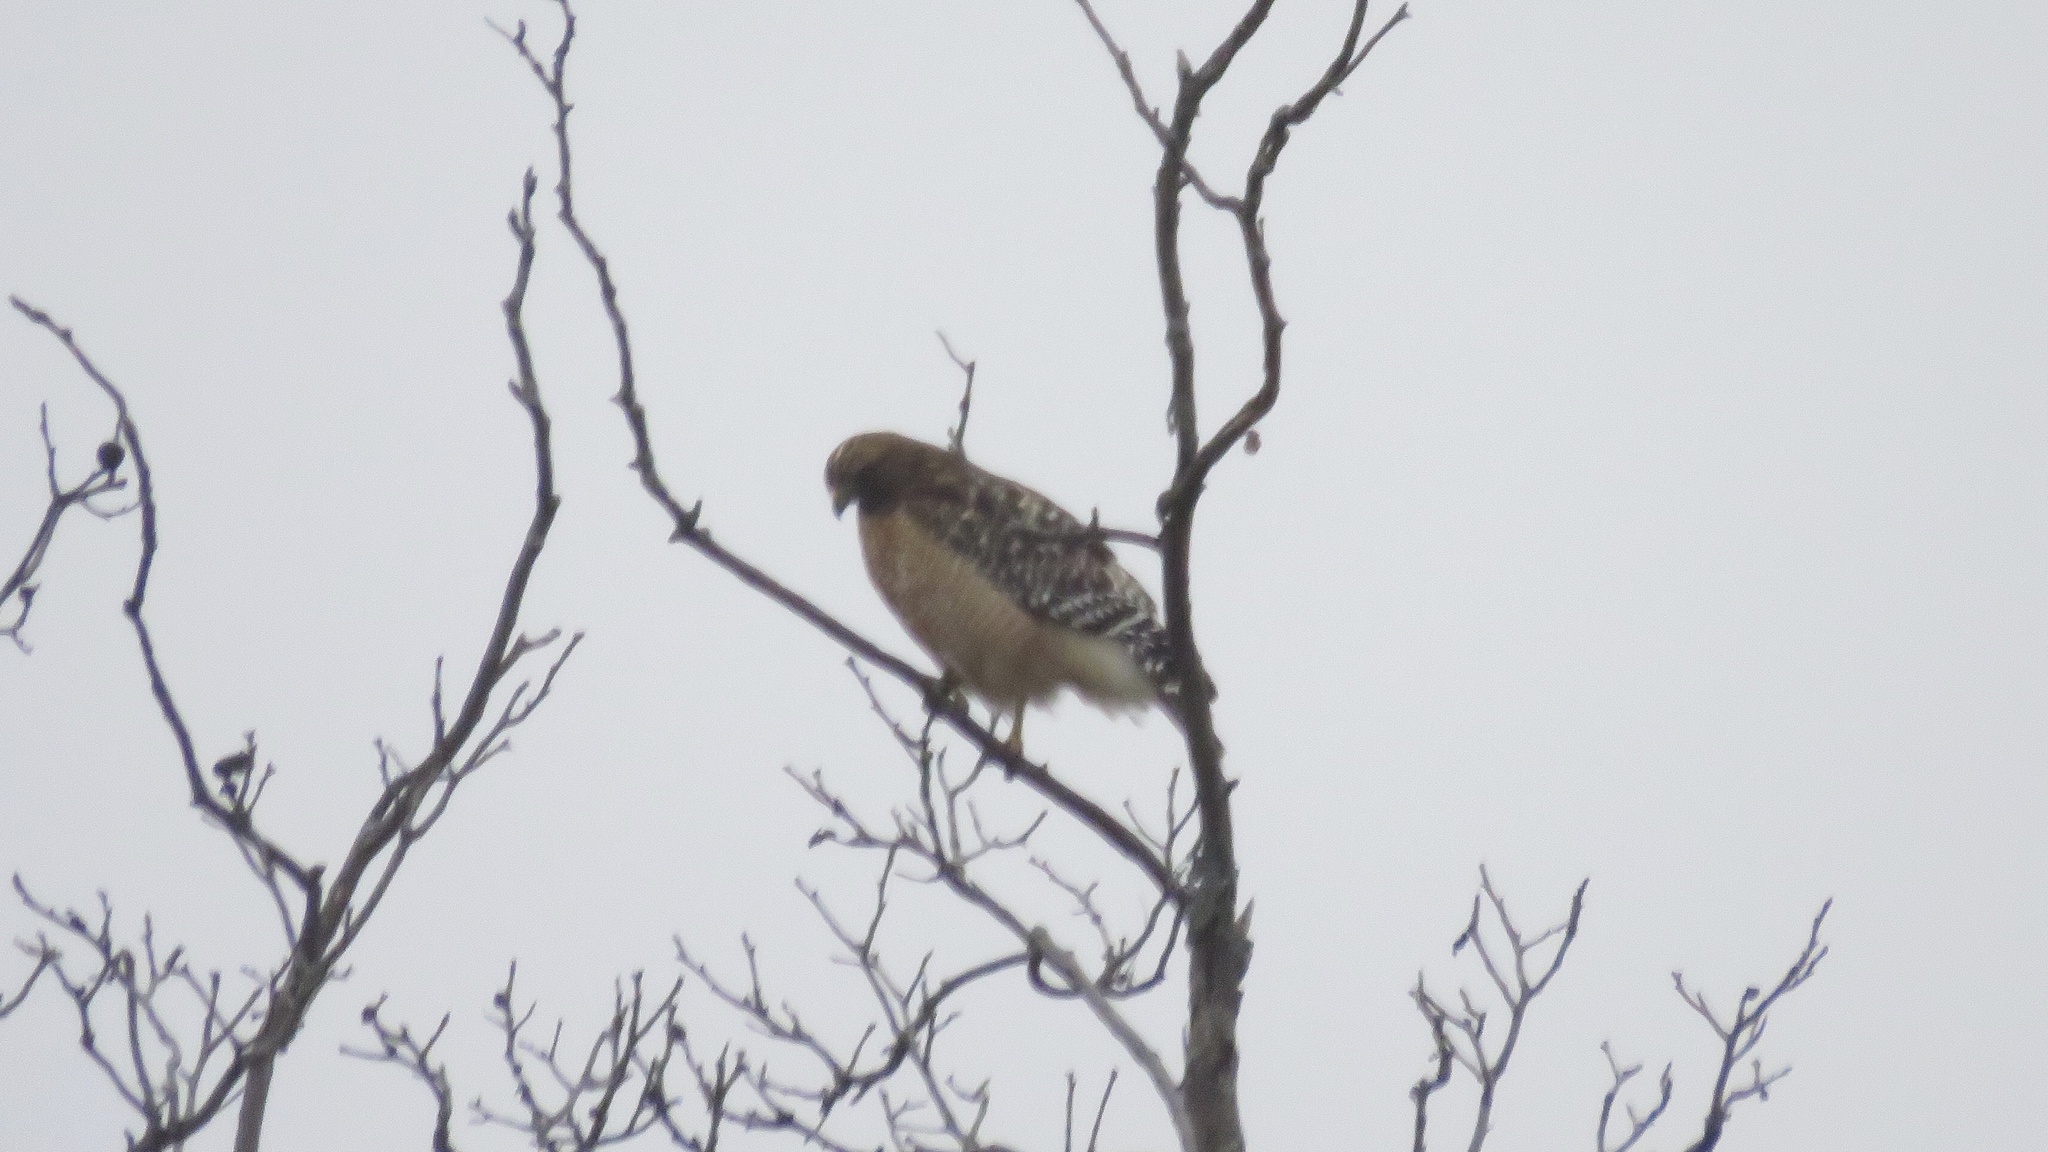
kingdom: Animalia
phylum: Chordata
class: Aves
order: Accipitriformes
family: Accipitridae
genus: Buteo
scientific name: Buteo lineatus
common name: Red-shouldered hawk
